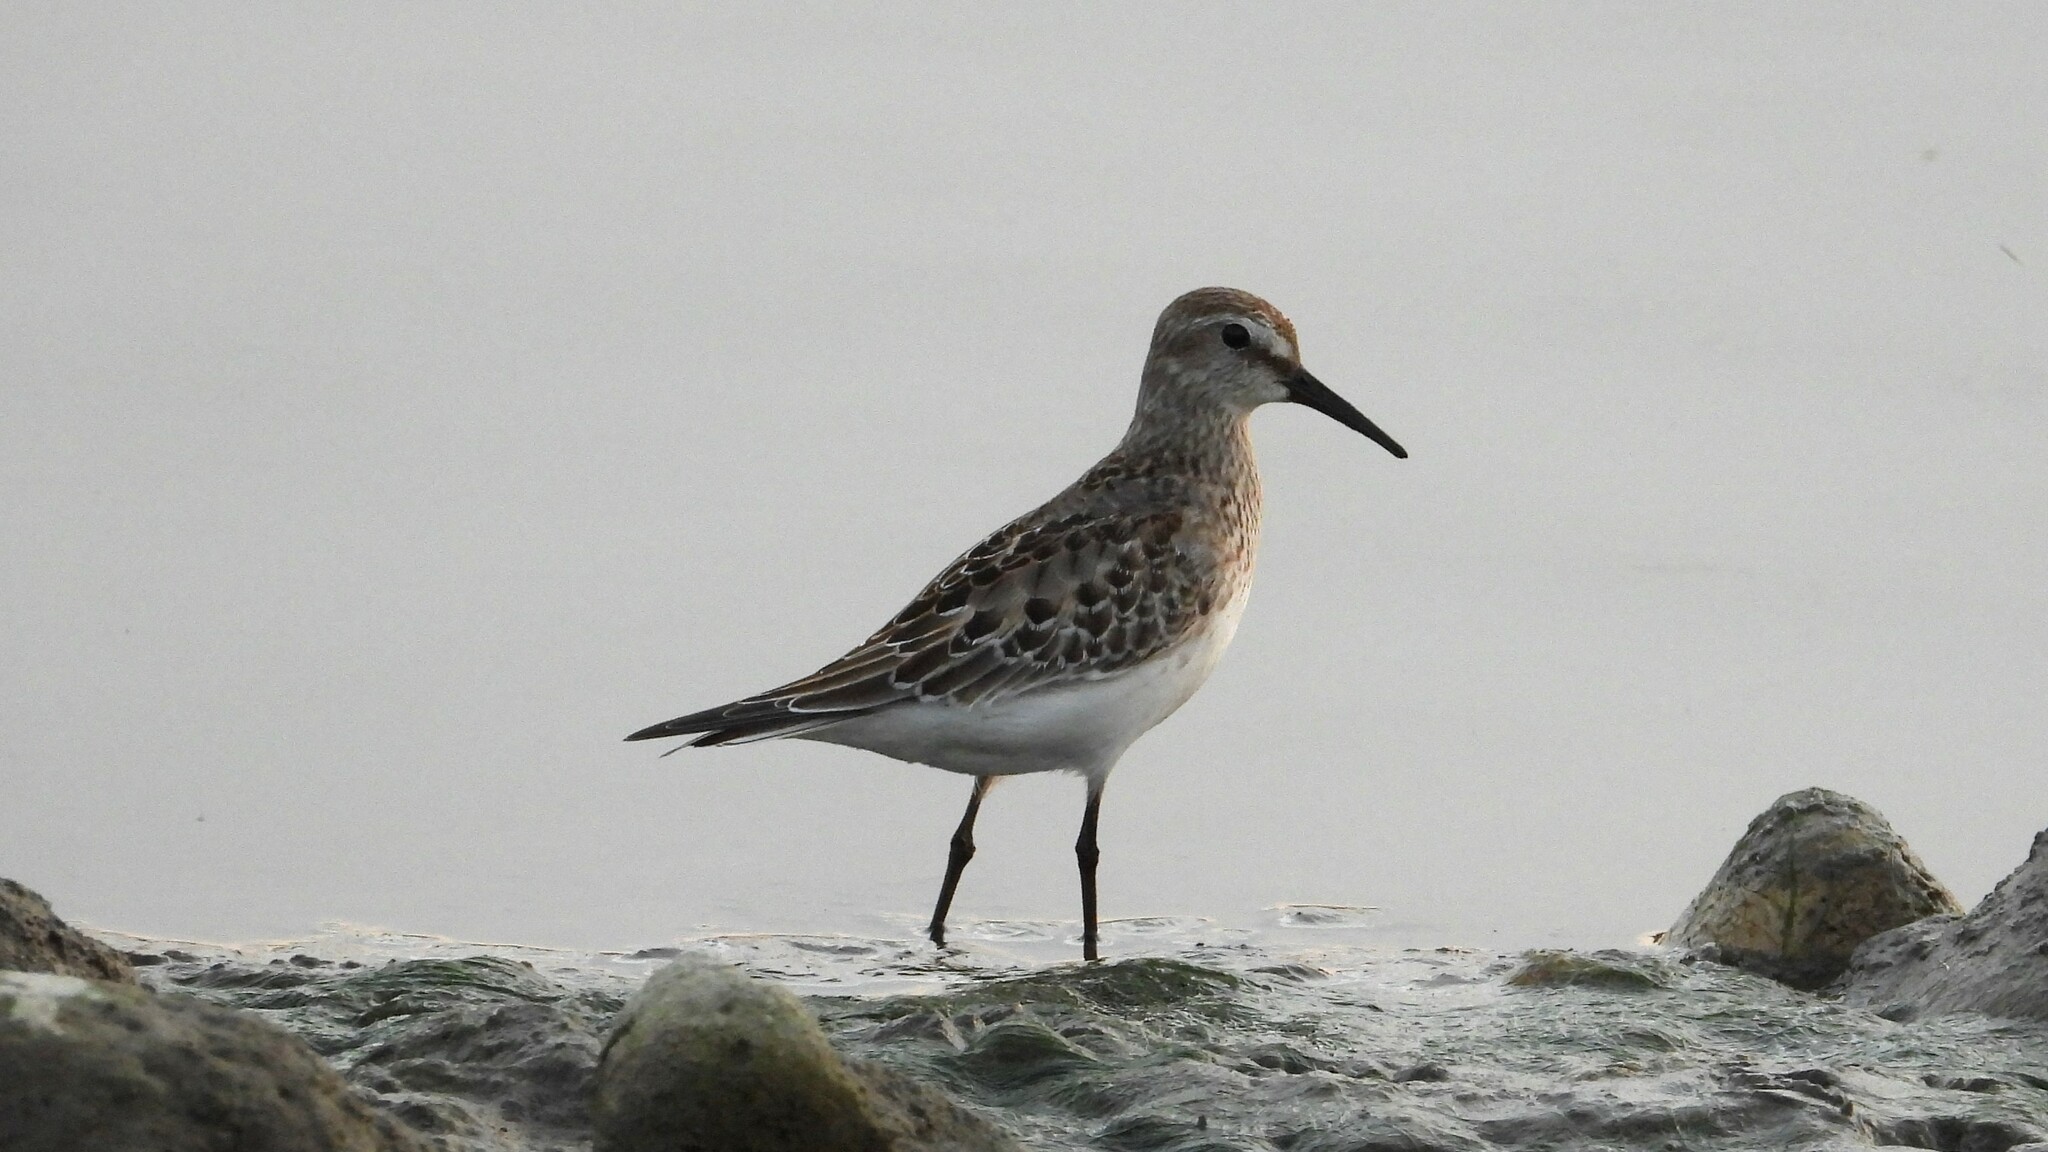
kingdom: Animalia
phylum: Chordata
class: Aves
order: Charadriiformes
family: Scolopacidae
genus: Calidris
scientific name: Calidris fuscicollis
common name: White-rumped sandpiper
